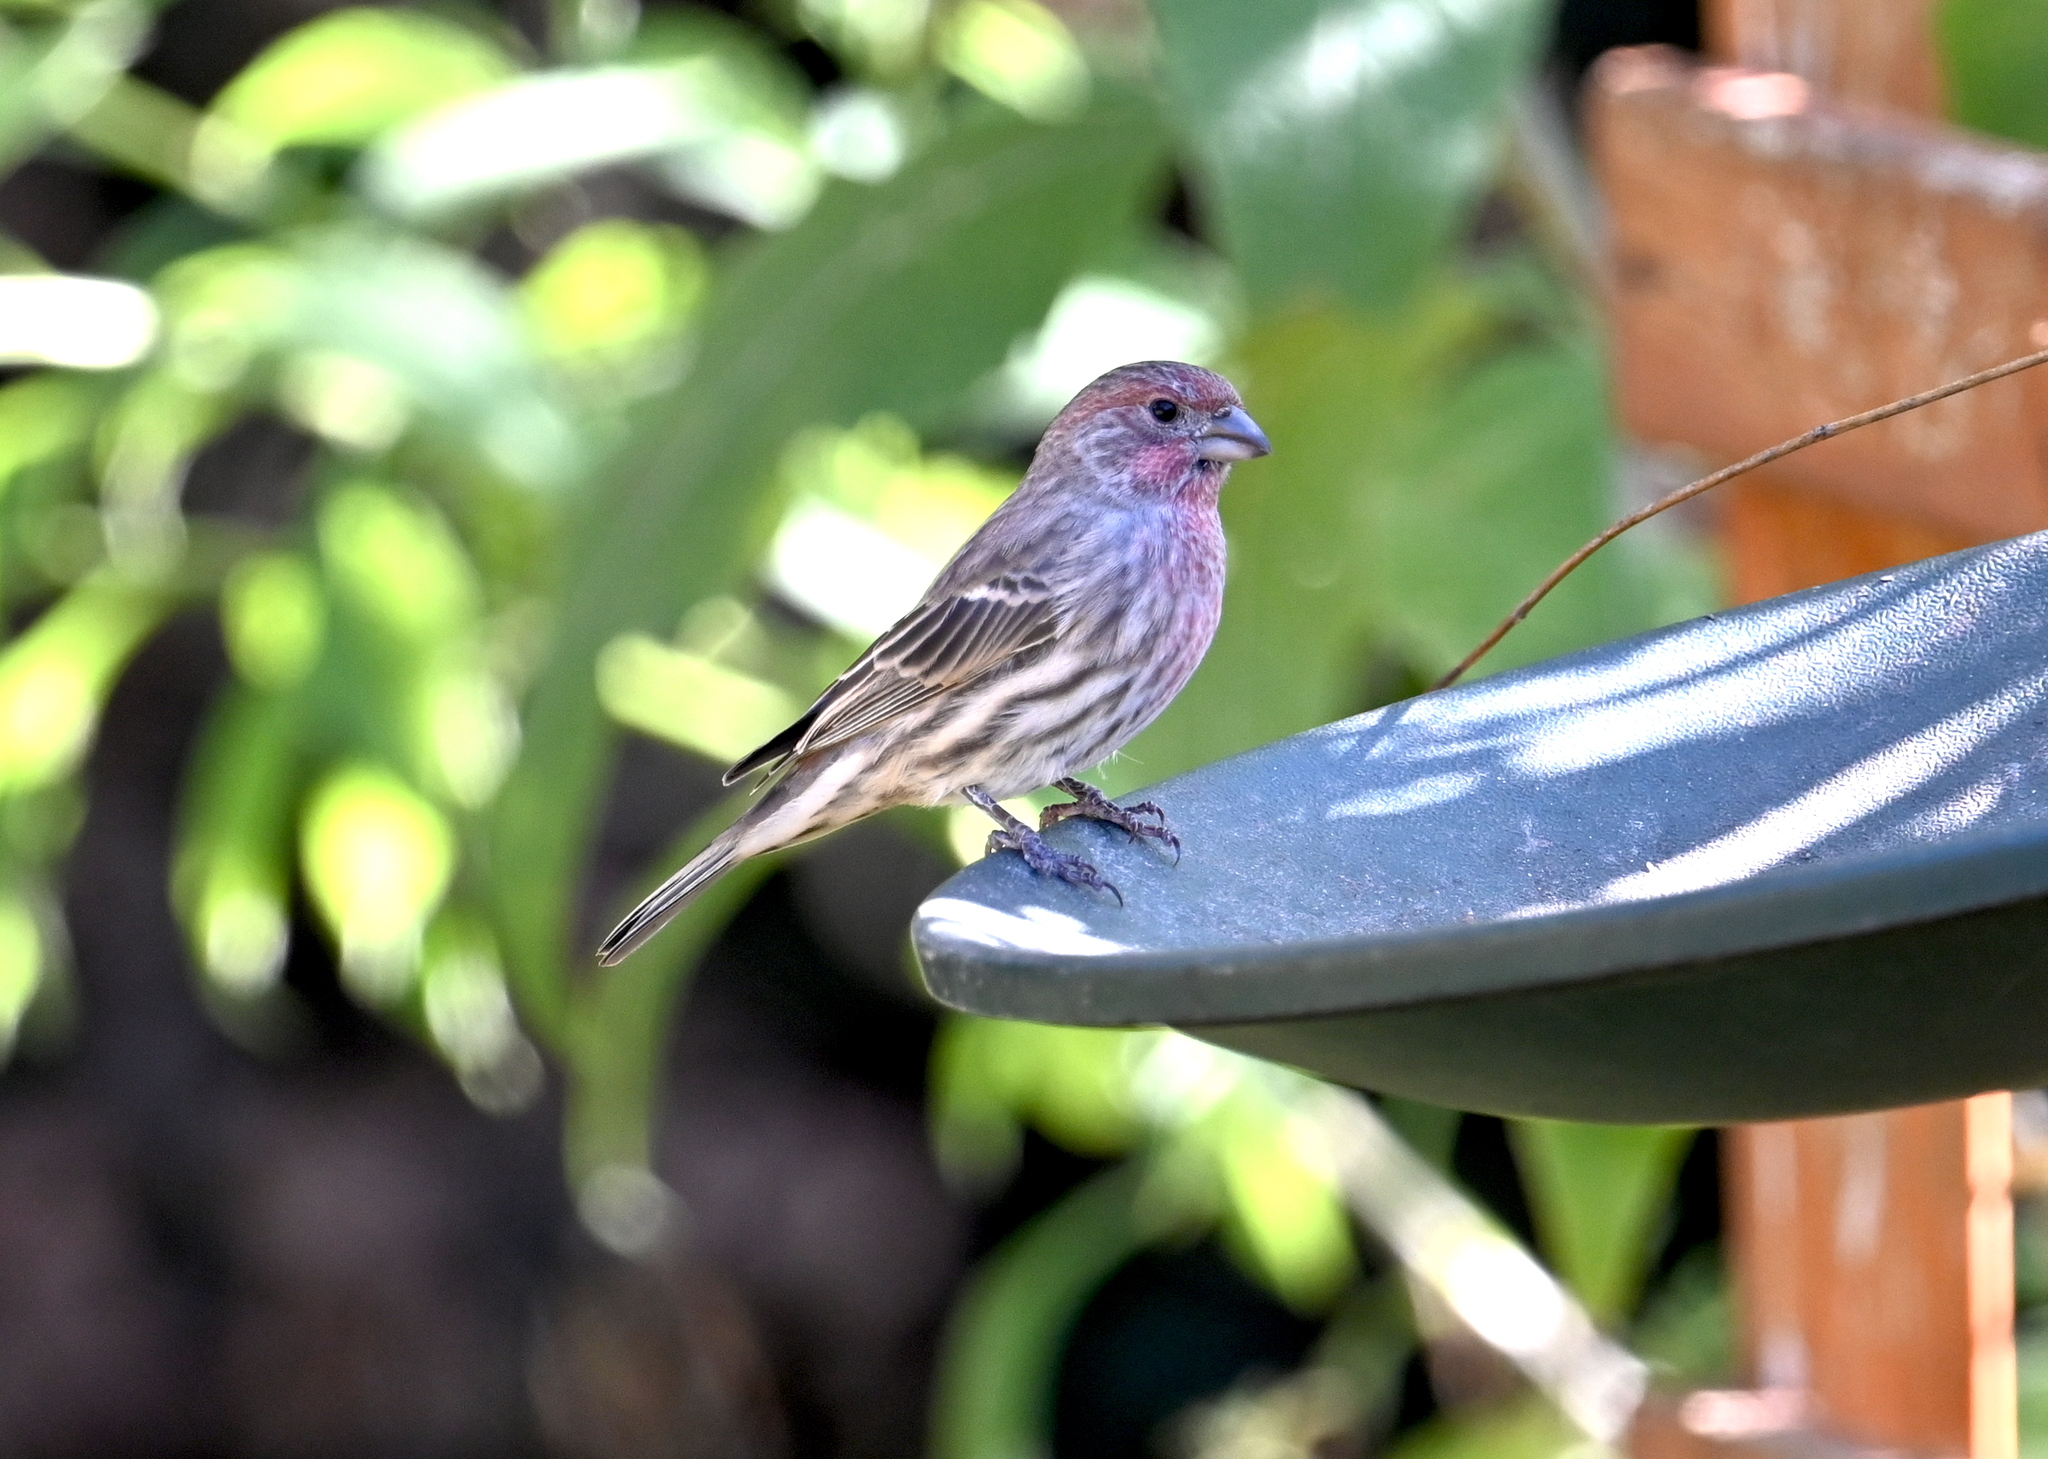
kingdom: Animalia
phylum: Chordata
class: Aves
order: Passeriformes
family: Fringillidae
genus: Haemorhous
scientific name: Haemorhous mexicanus
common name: House finch
